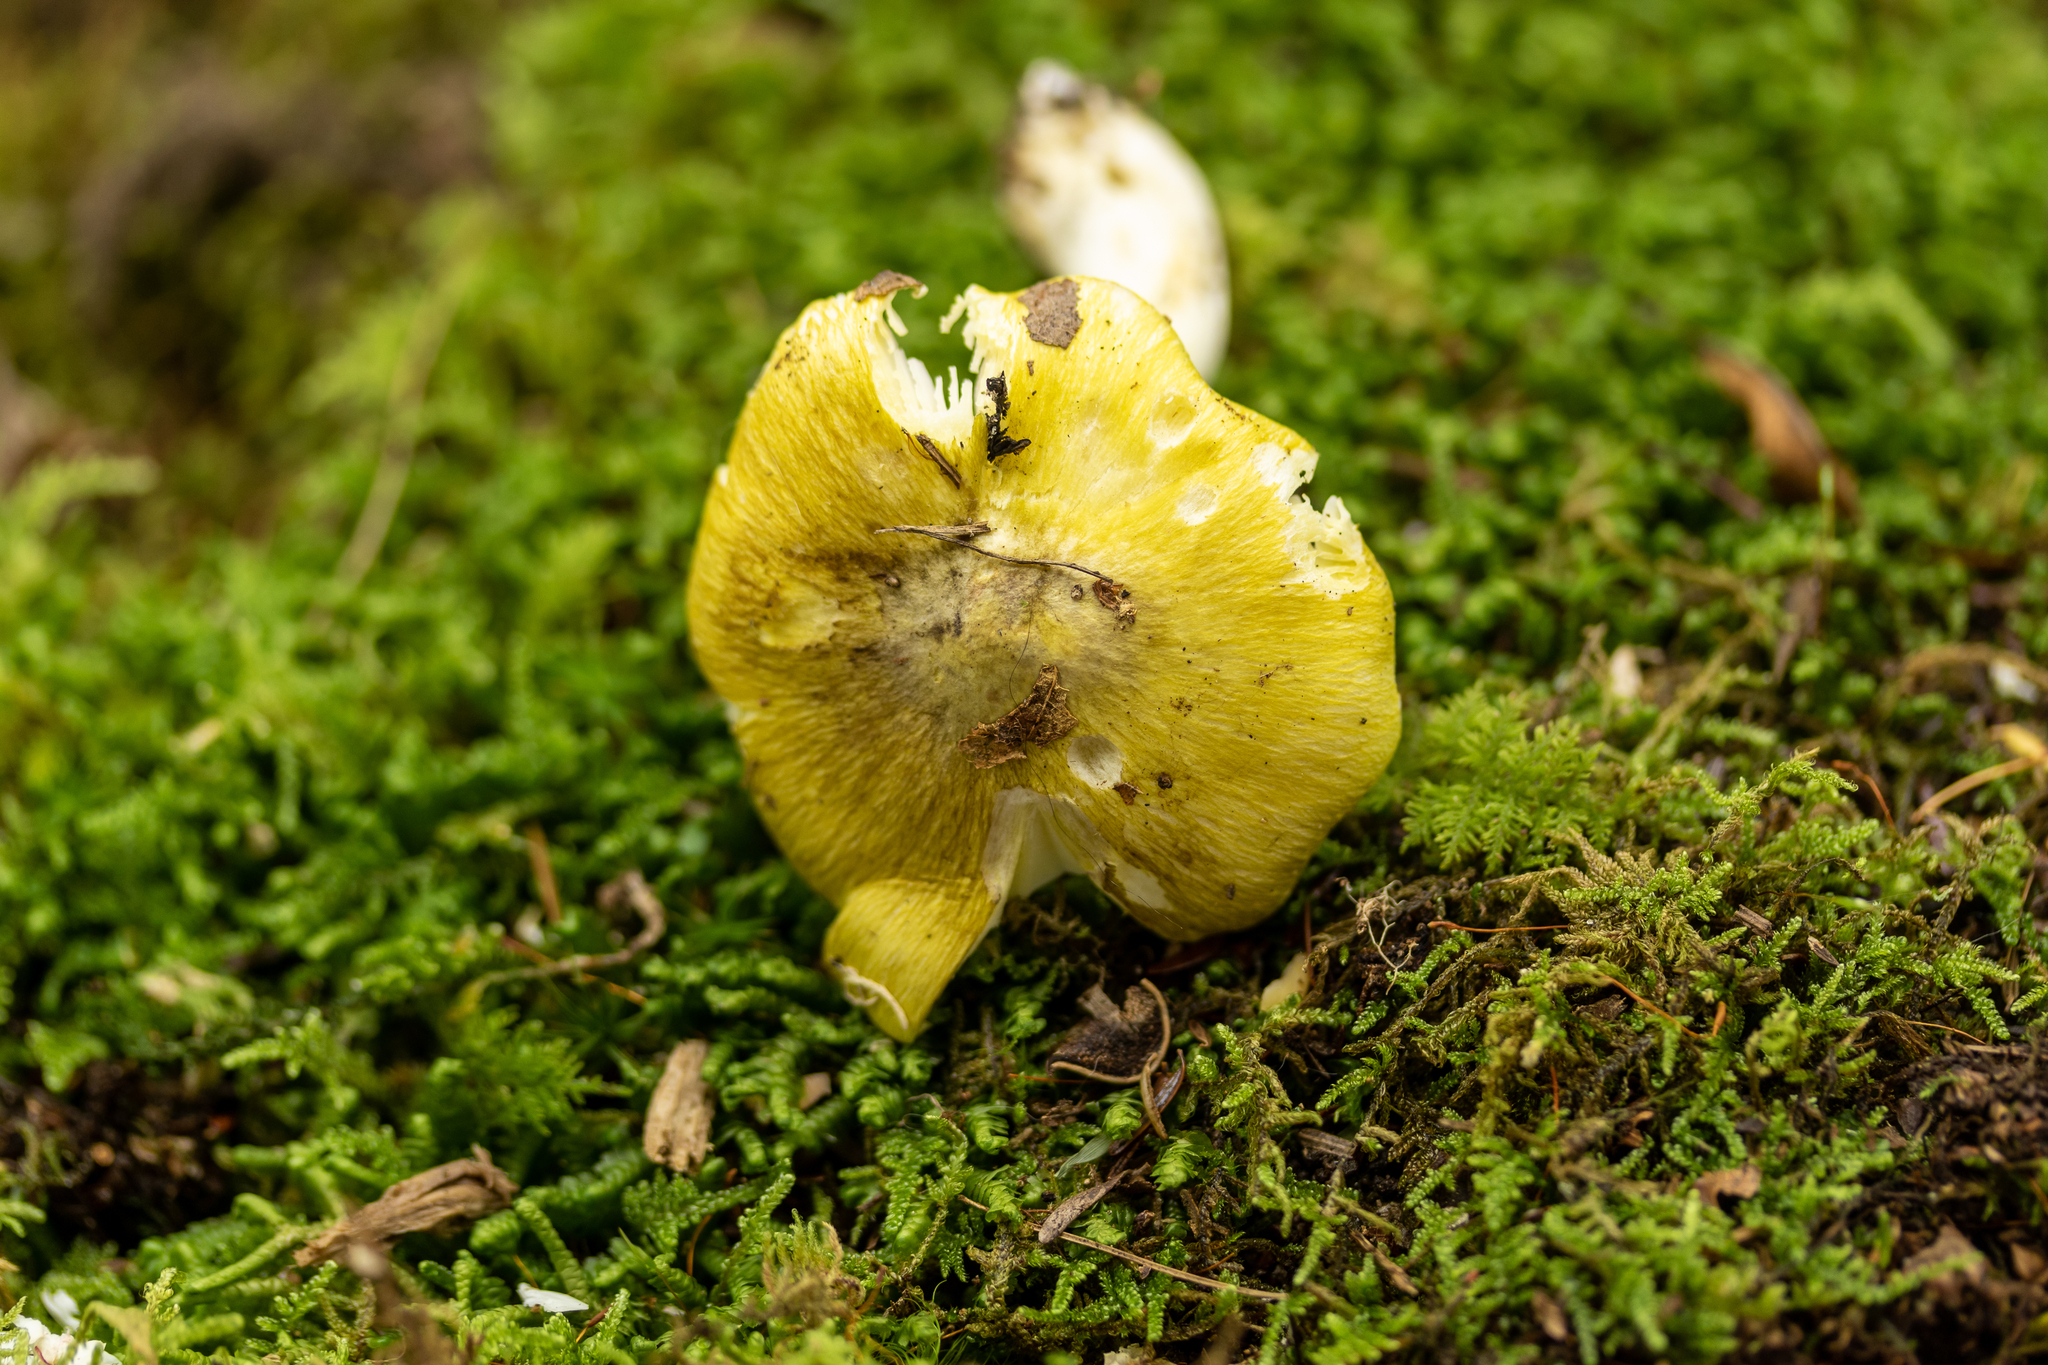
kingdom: Fungi
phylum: Basidiomycota
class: Agaricomycetes
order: Agaricales
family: Tricholomataceae
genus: Tricholoma
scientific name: Tricholoma subsejunctum
